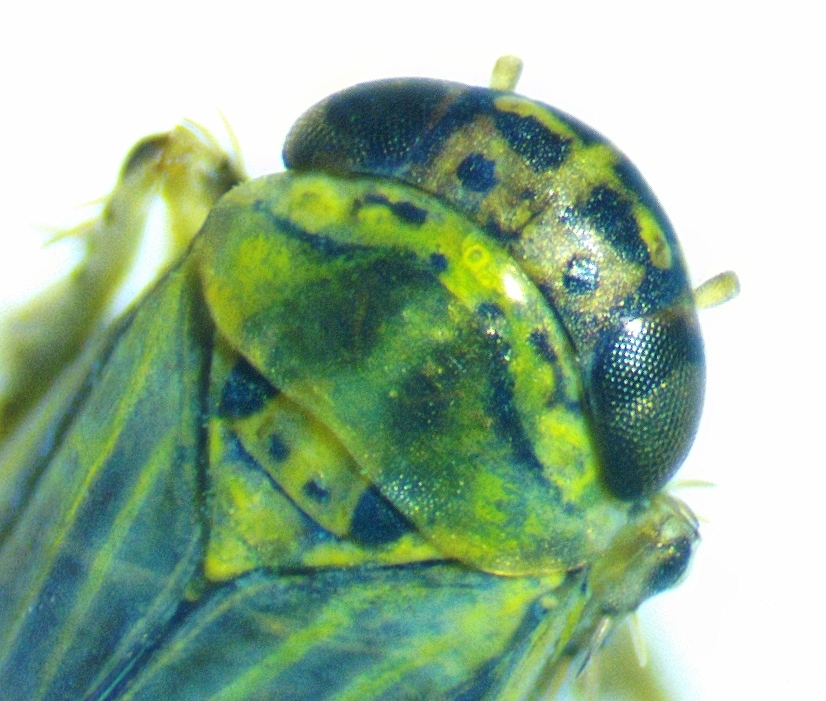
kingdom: Animalia
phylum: Arthropoda
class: Insecta
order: Hemiptera
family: Cicadellidae
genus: Macrosteles
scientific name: Macrosteles bifurcatus
